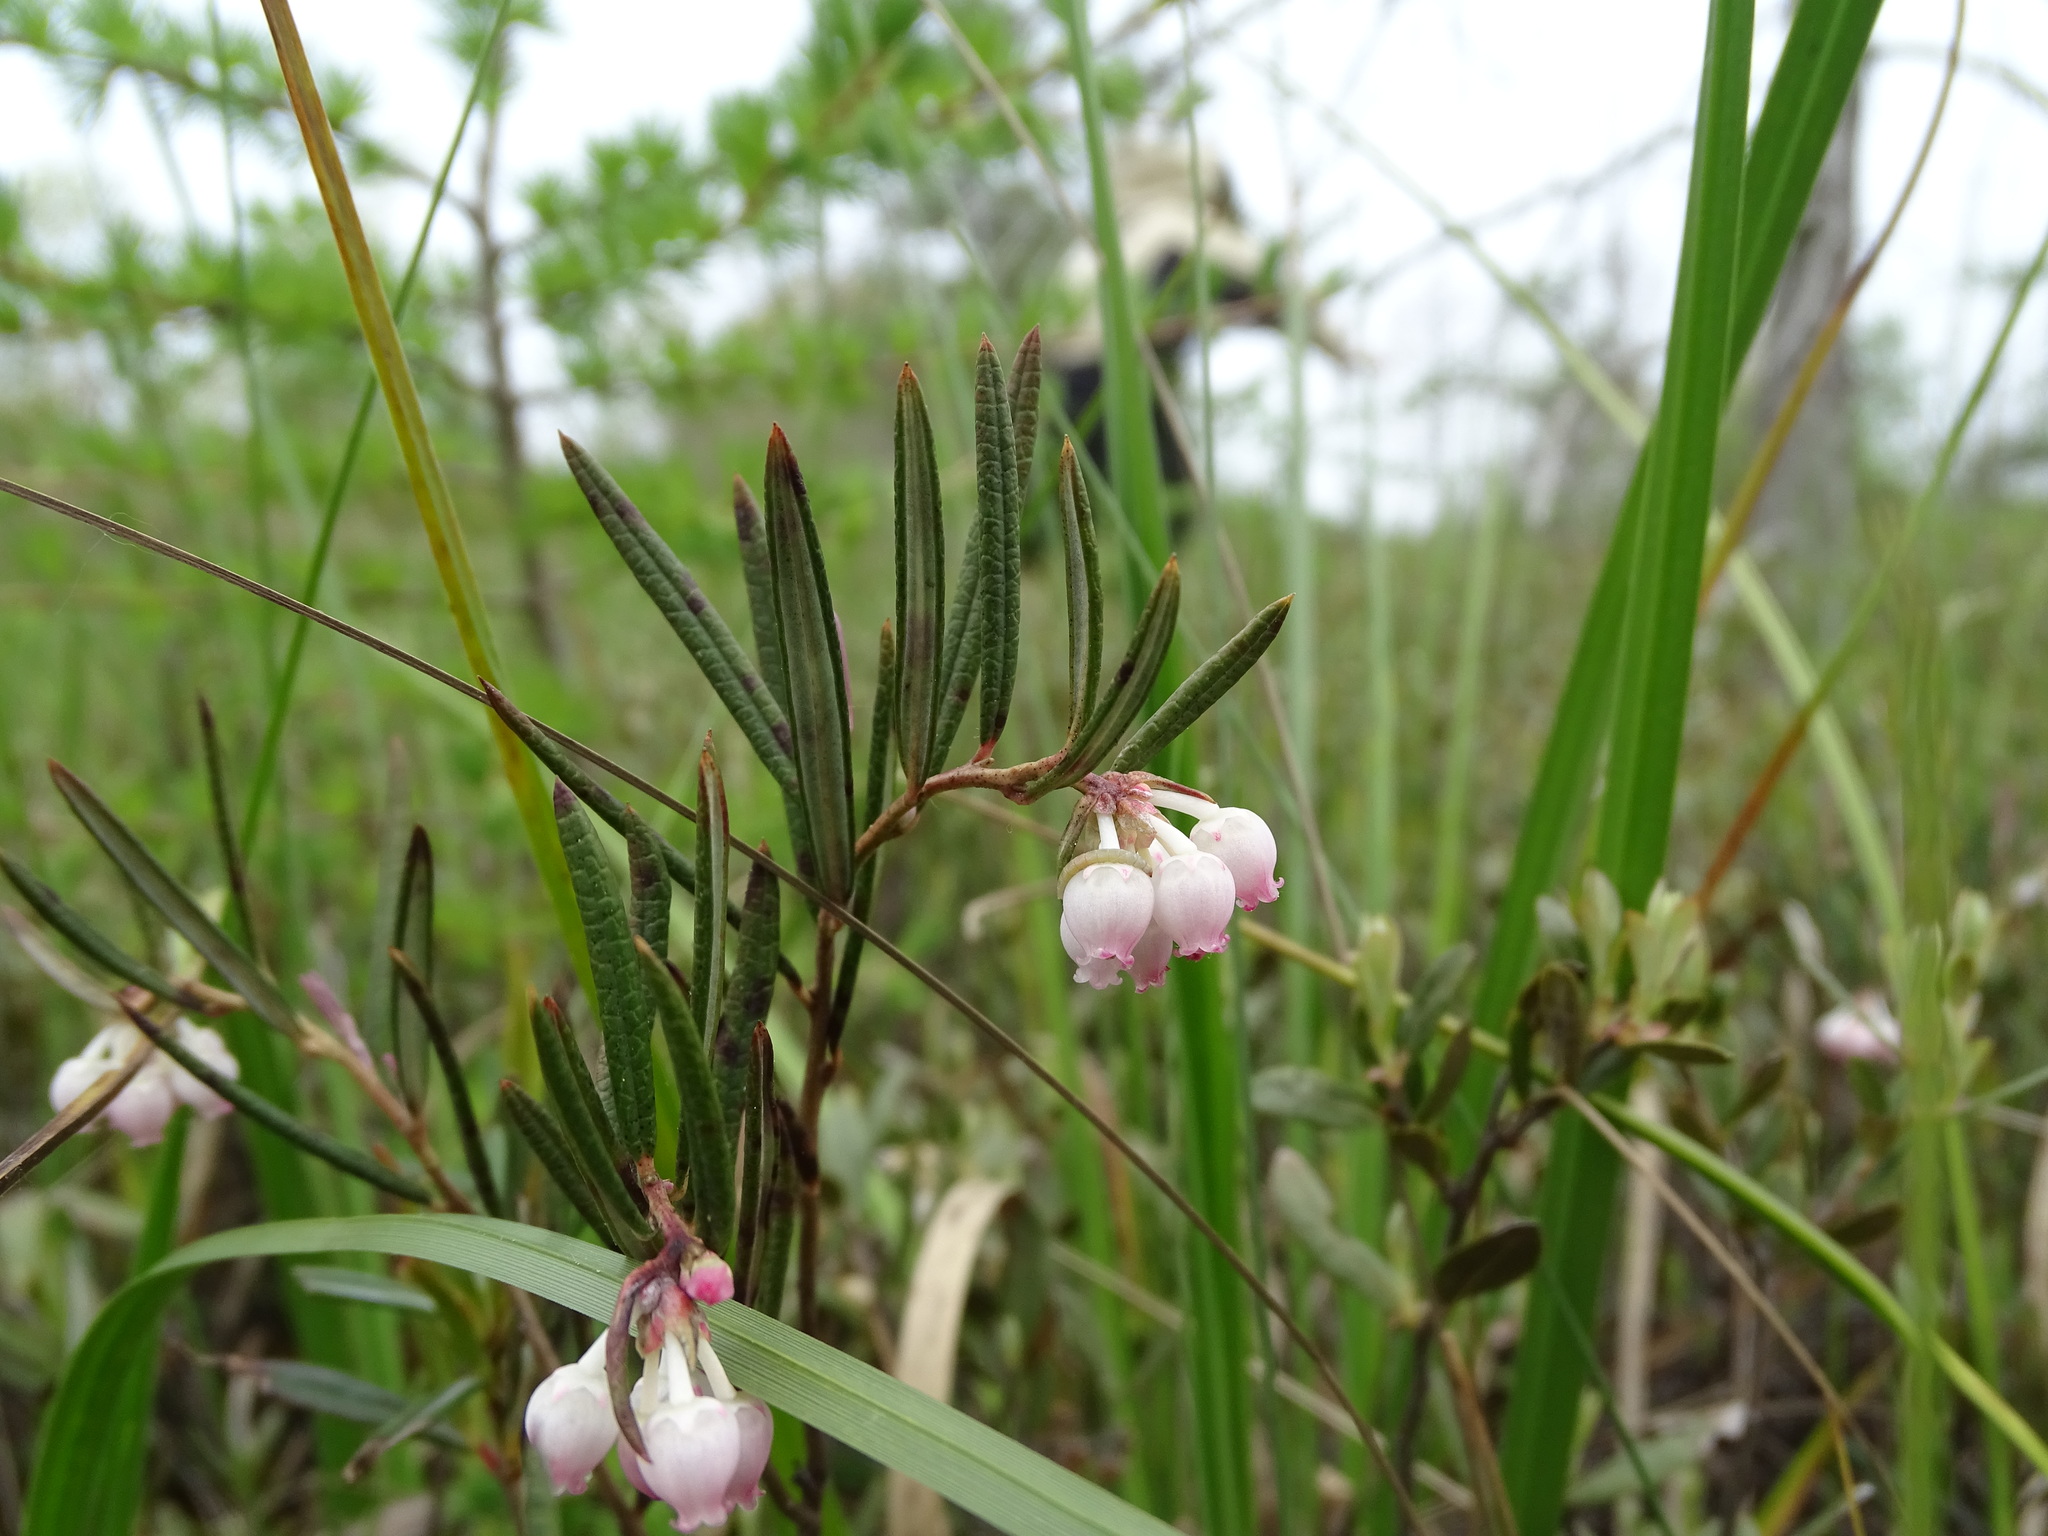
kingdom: Plantae
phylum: Tracheophyta
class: Magnoliopsida
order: Ericales
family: Ericaceae
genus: Andromeda
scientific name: Andromeda polifolia
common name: Bog-rosemary
